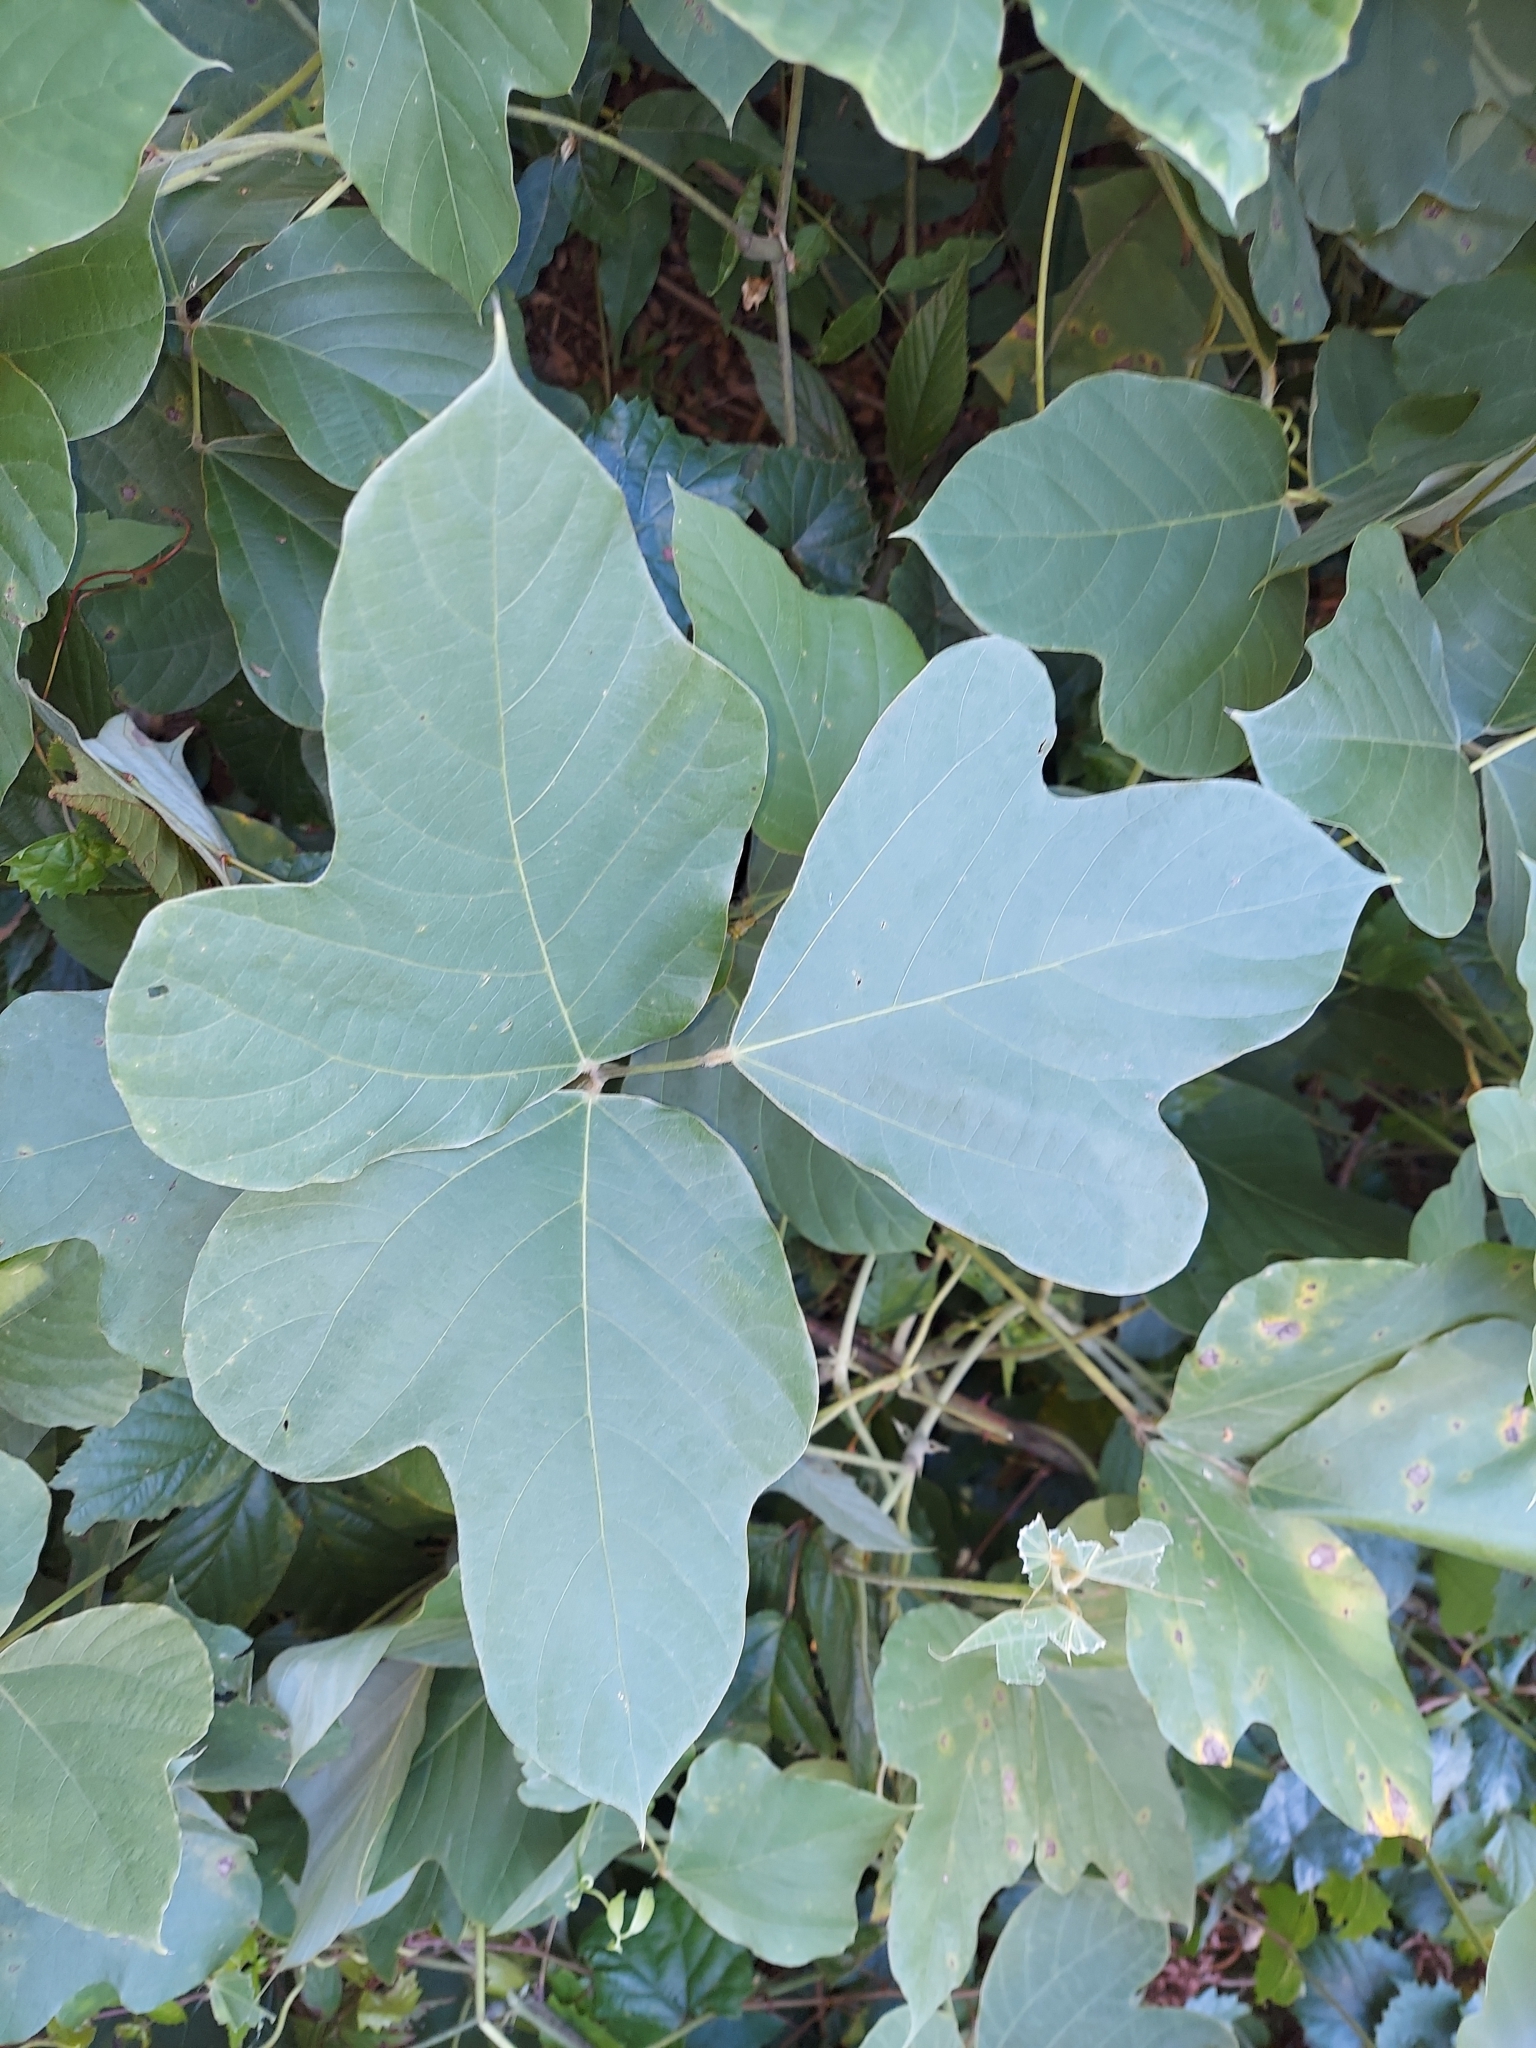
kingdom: Plantae
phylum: Tracheophyta
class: Magnoliopsida
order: Fabales
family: Fabaceae
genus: Pueraria
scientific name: Pueraria montana
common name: Kudzu
